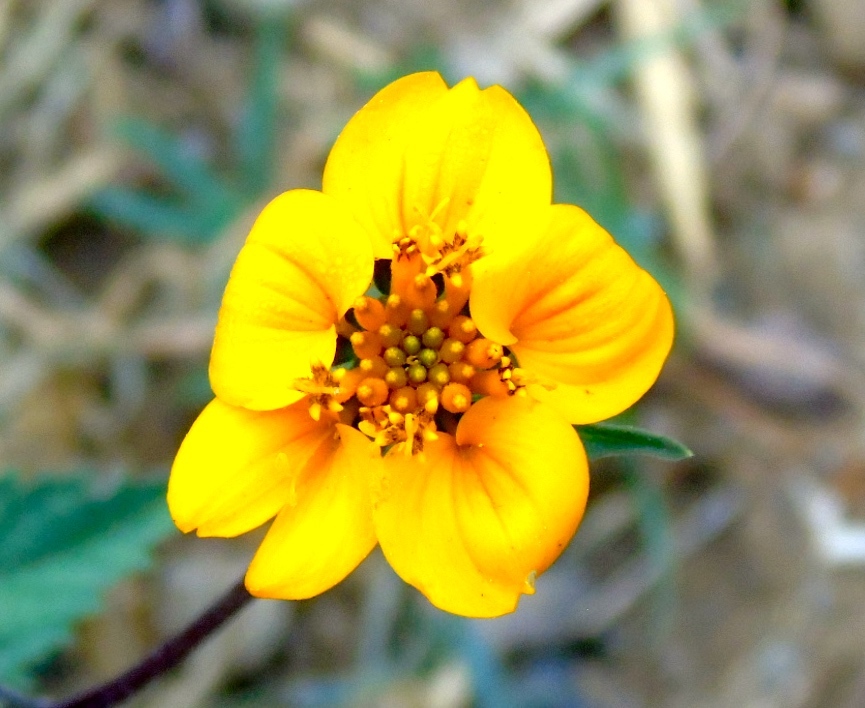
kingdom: Plantae
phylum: Tracheophyta
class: Magnoliopsida
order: Asterales
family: Asteraceae
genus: Sclerocarpus
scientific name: Sclerocarpus divaricatus
